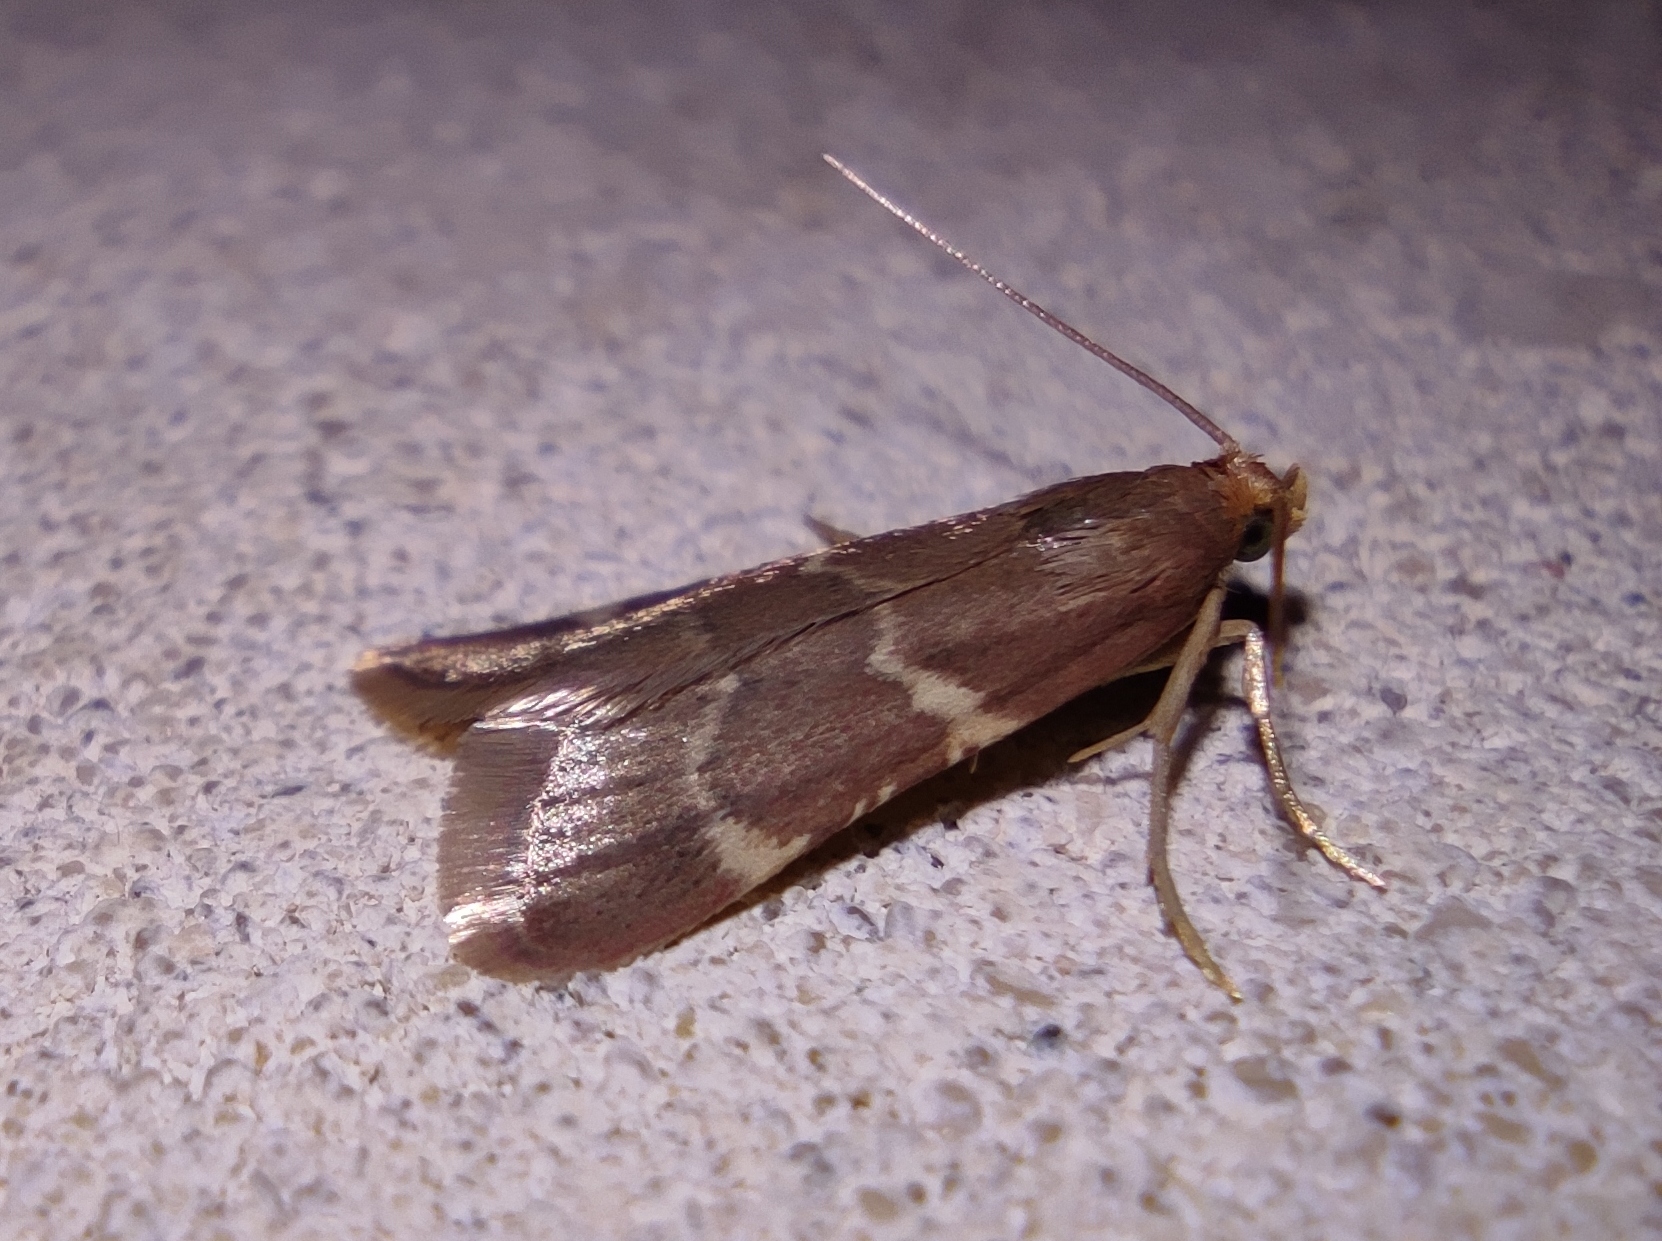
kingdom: Animalia
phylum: Arthropoda
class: Insecta
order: Lepidoptera
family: Pyralidae
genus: Pyralis
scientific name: Pyralis perversalis
